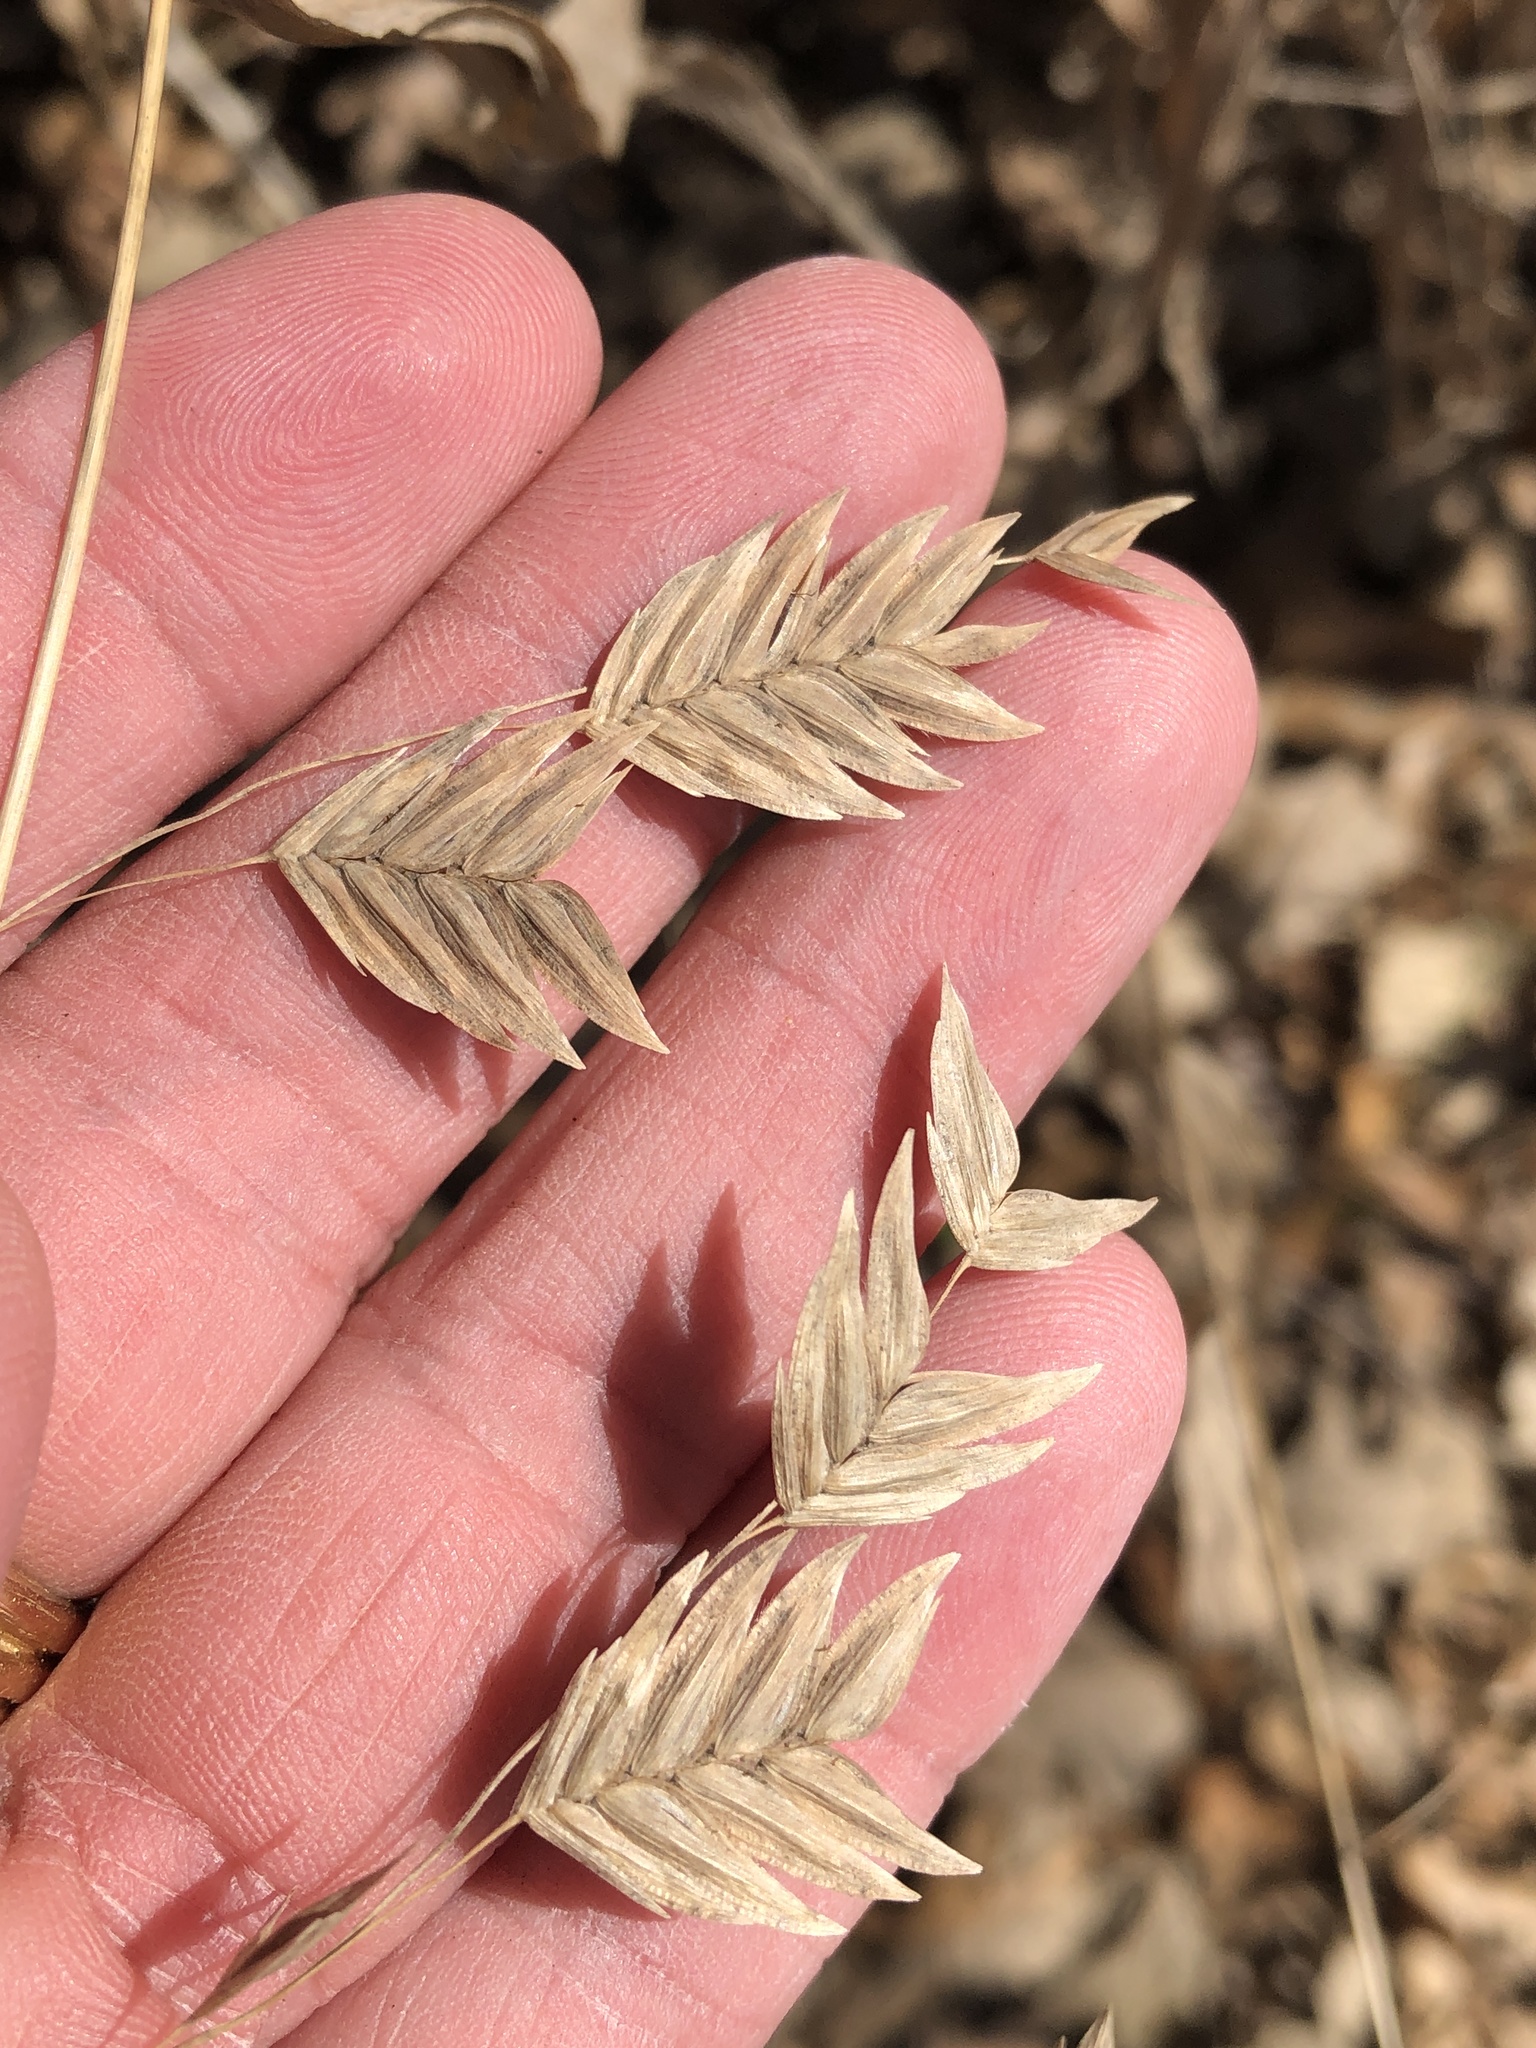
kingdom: Plantae
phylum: Tracheophyta
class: Liliopsida
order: Poales
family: Poaceae
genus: Chasmanthium
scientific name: Chasmanthium latifolium
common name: Broad-leaved chasmanthium
